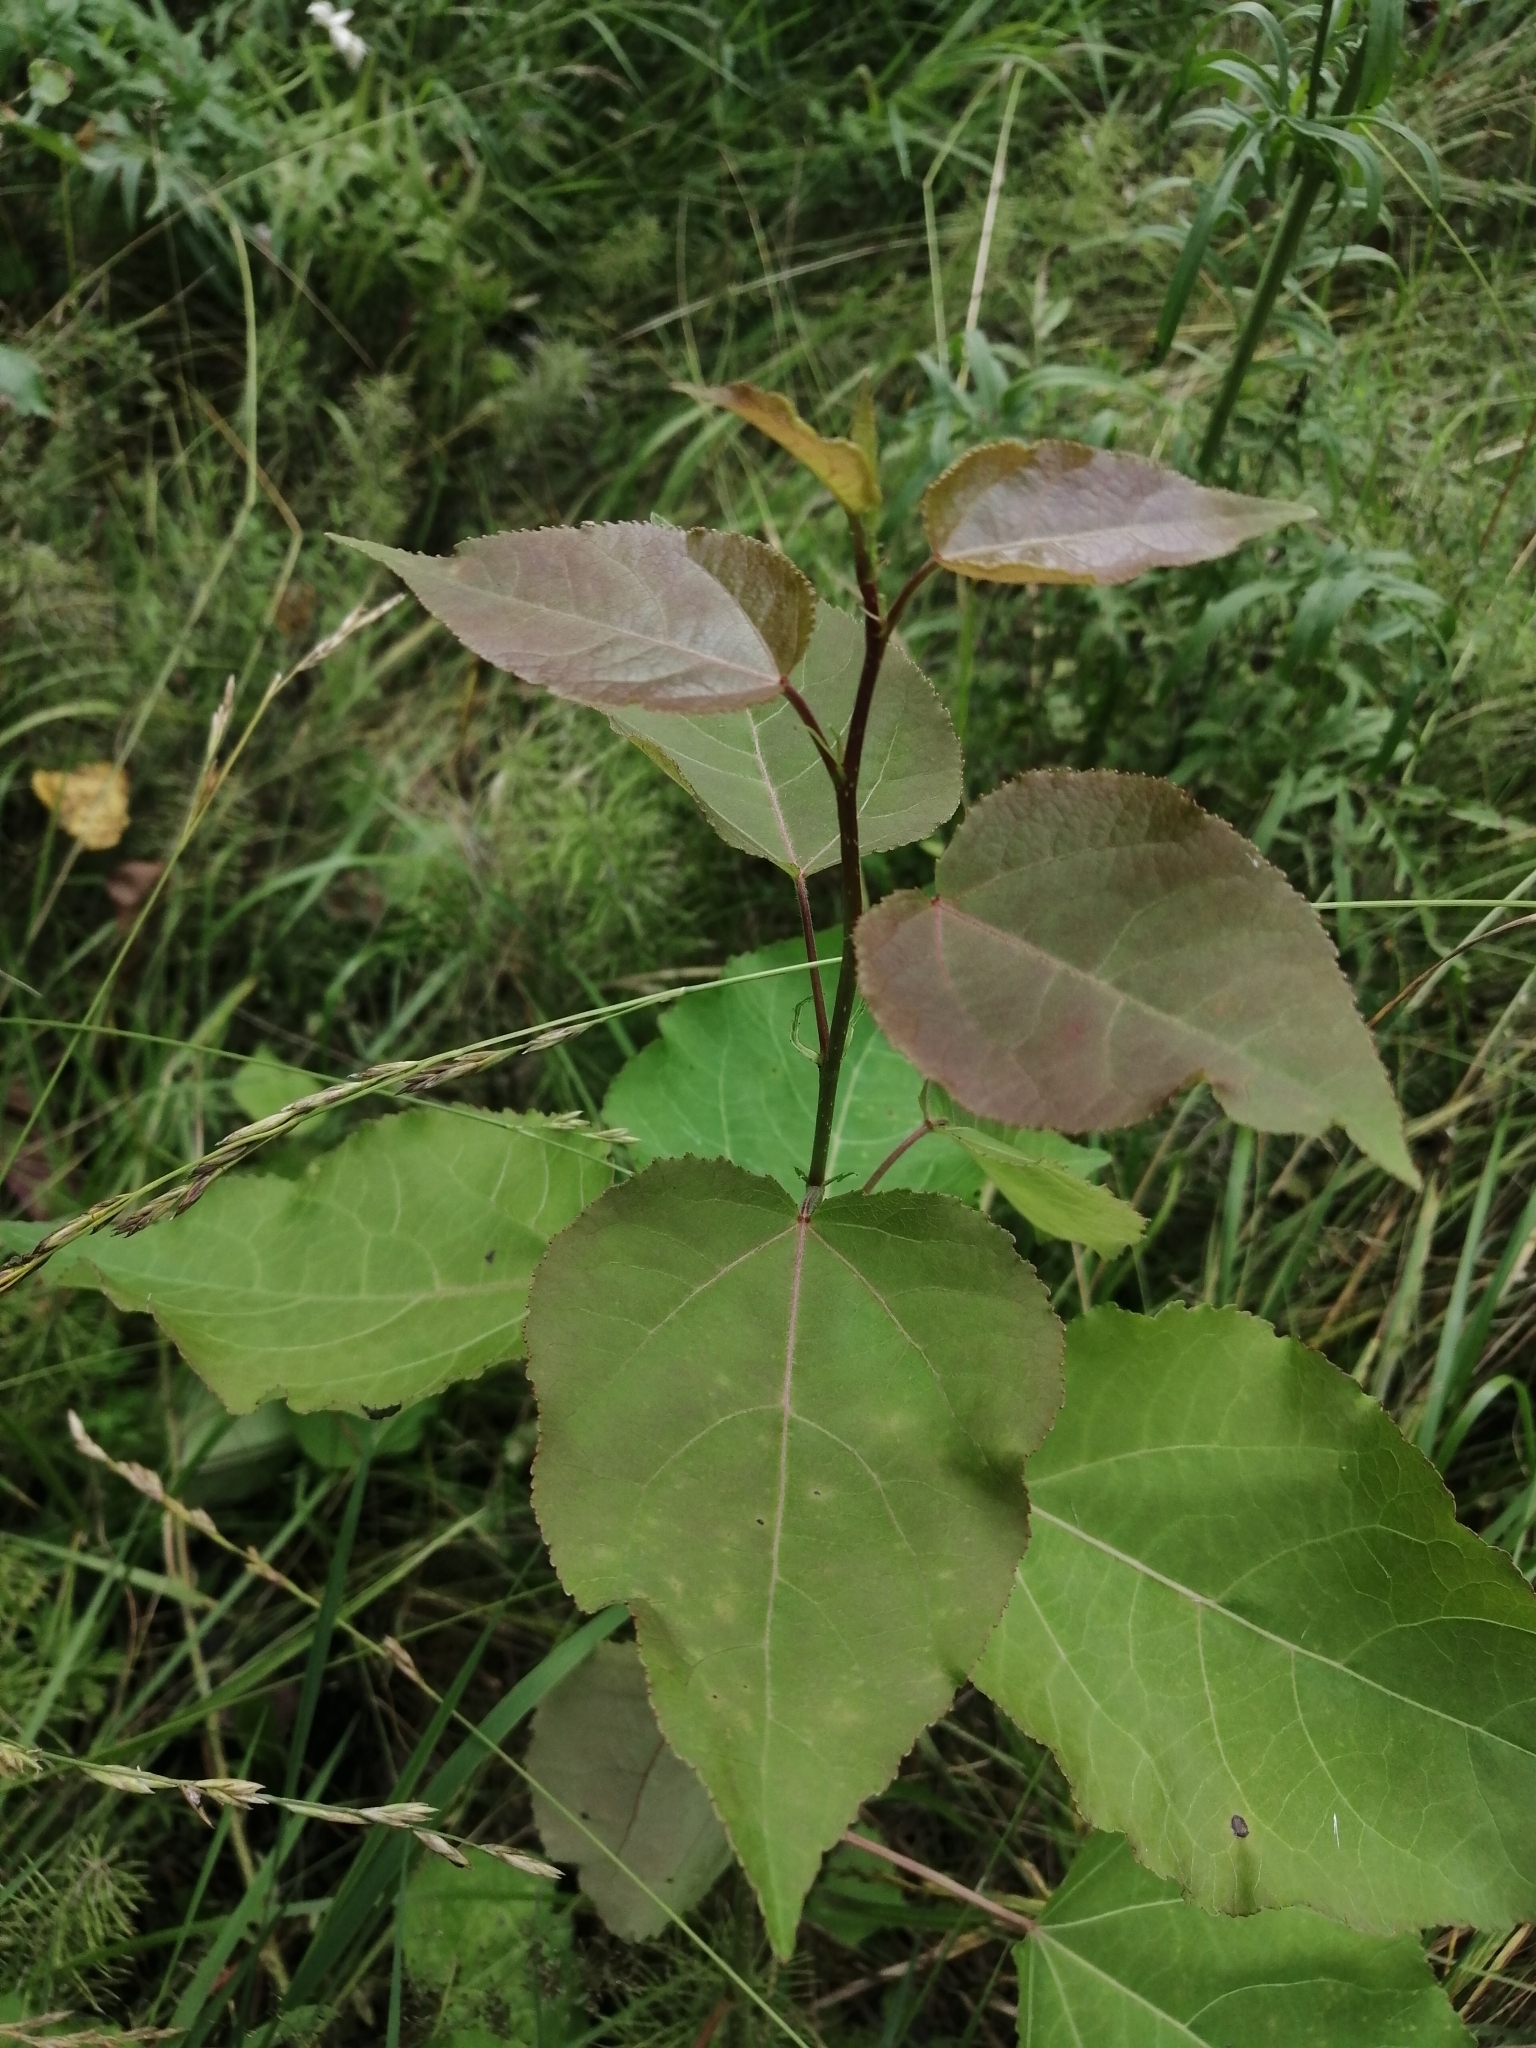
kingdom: Plantae
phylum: Tracheophyta
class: Magnoliopsida
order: Malpighiales
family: Salicaceae
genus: Populus
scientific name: Populus tremula
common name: European aspen
